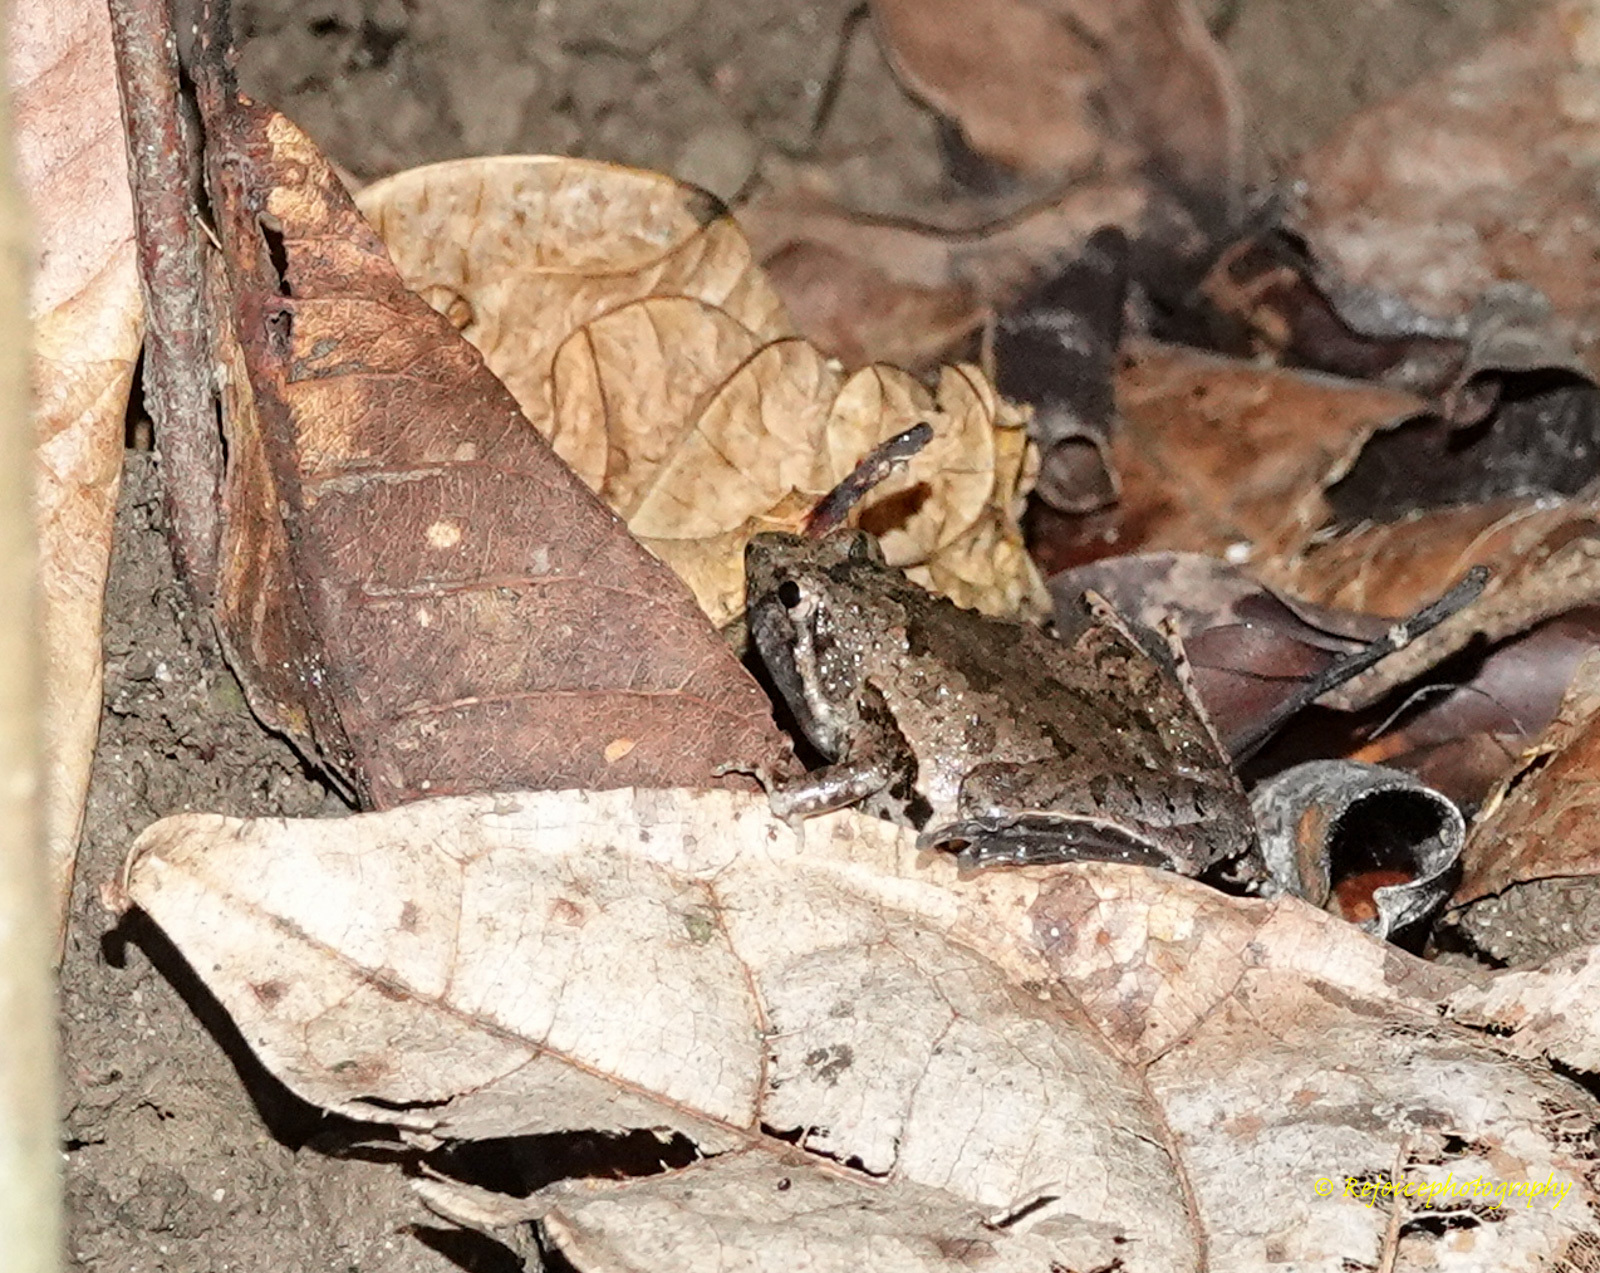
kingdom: Animalia
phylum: Chordata
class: Amphibia
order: Anura
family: Microhylidae
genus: Microhyla
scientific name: Microhyla berdmorei
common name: Berdmore’s narrow-mouthed frog,large pygmy frog
